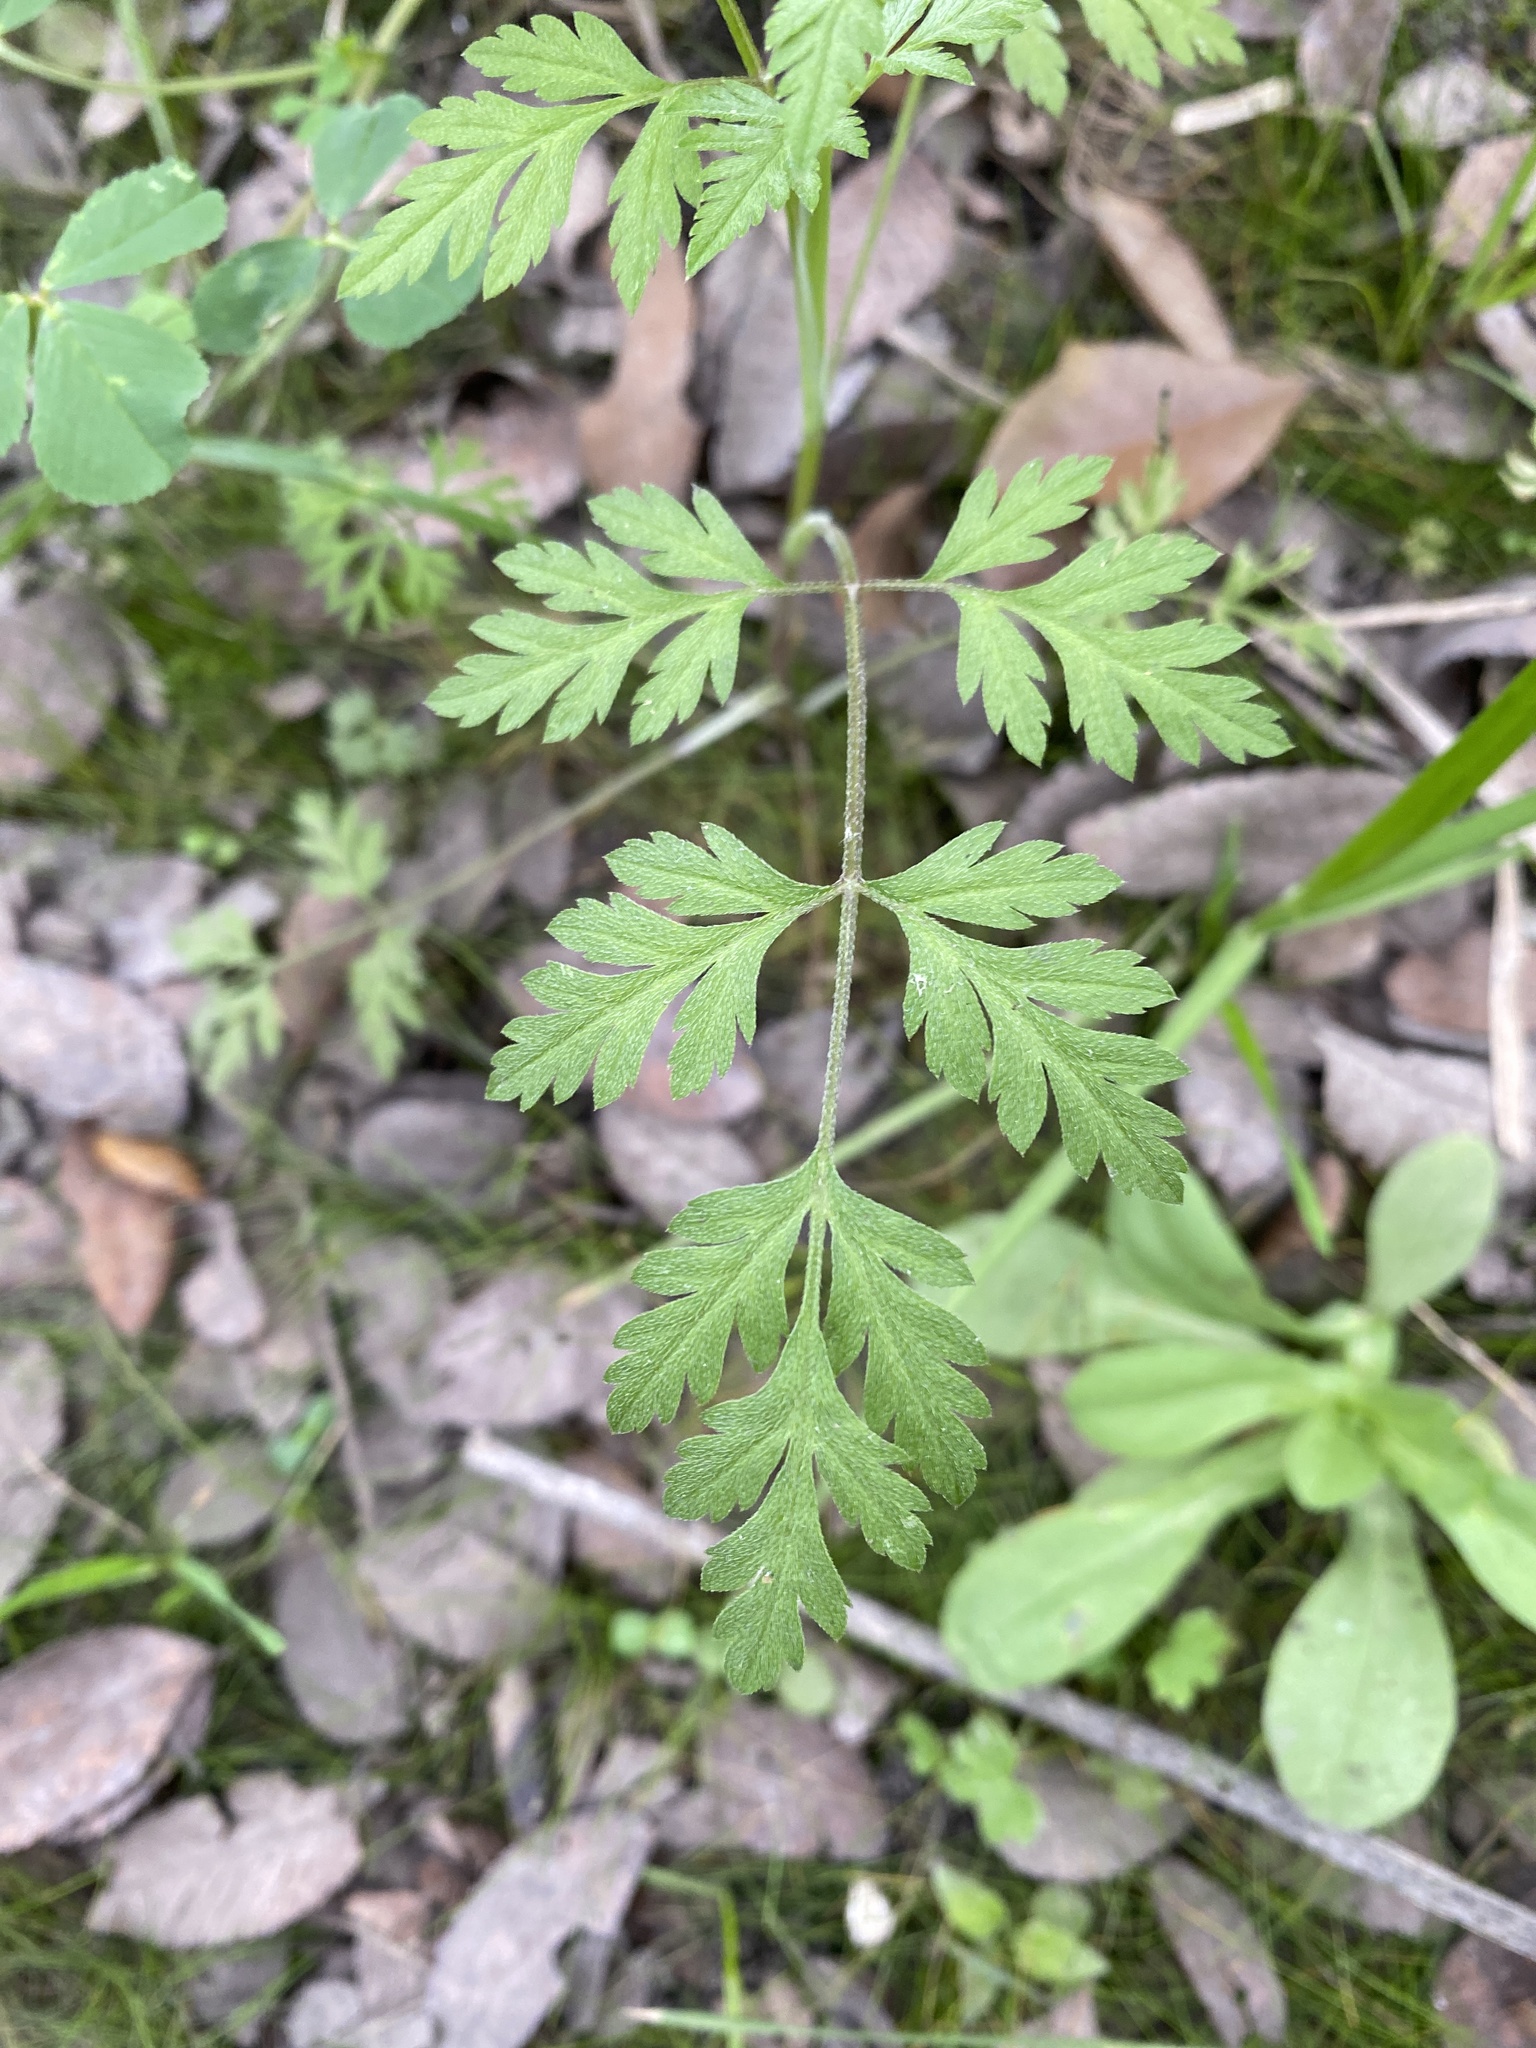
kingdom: Plantae
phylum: Tracheophyta
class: Magnoliopsida
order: Apiales
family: Apiaceae
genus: Torilis
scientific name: Torilis arvensis
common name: Spreading hedge-parsley
